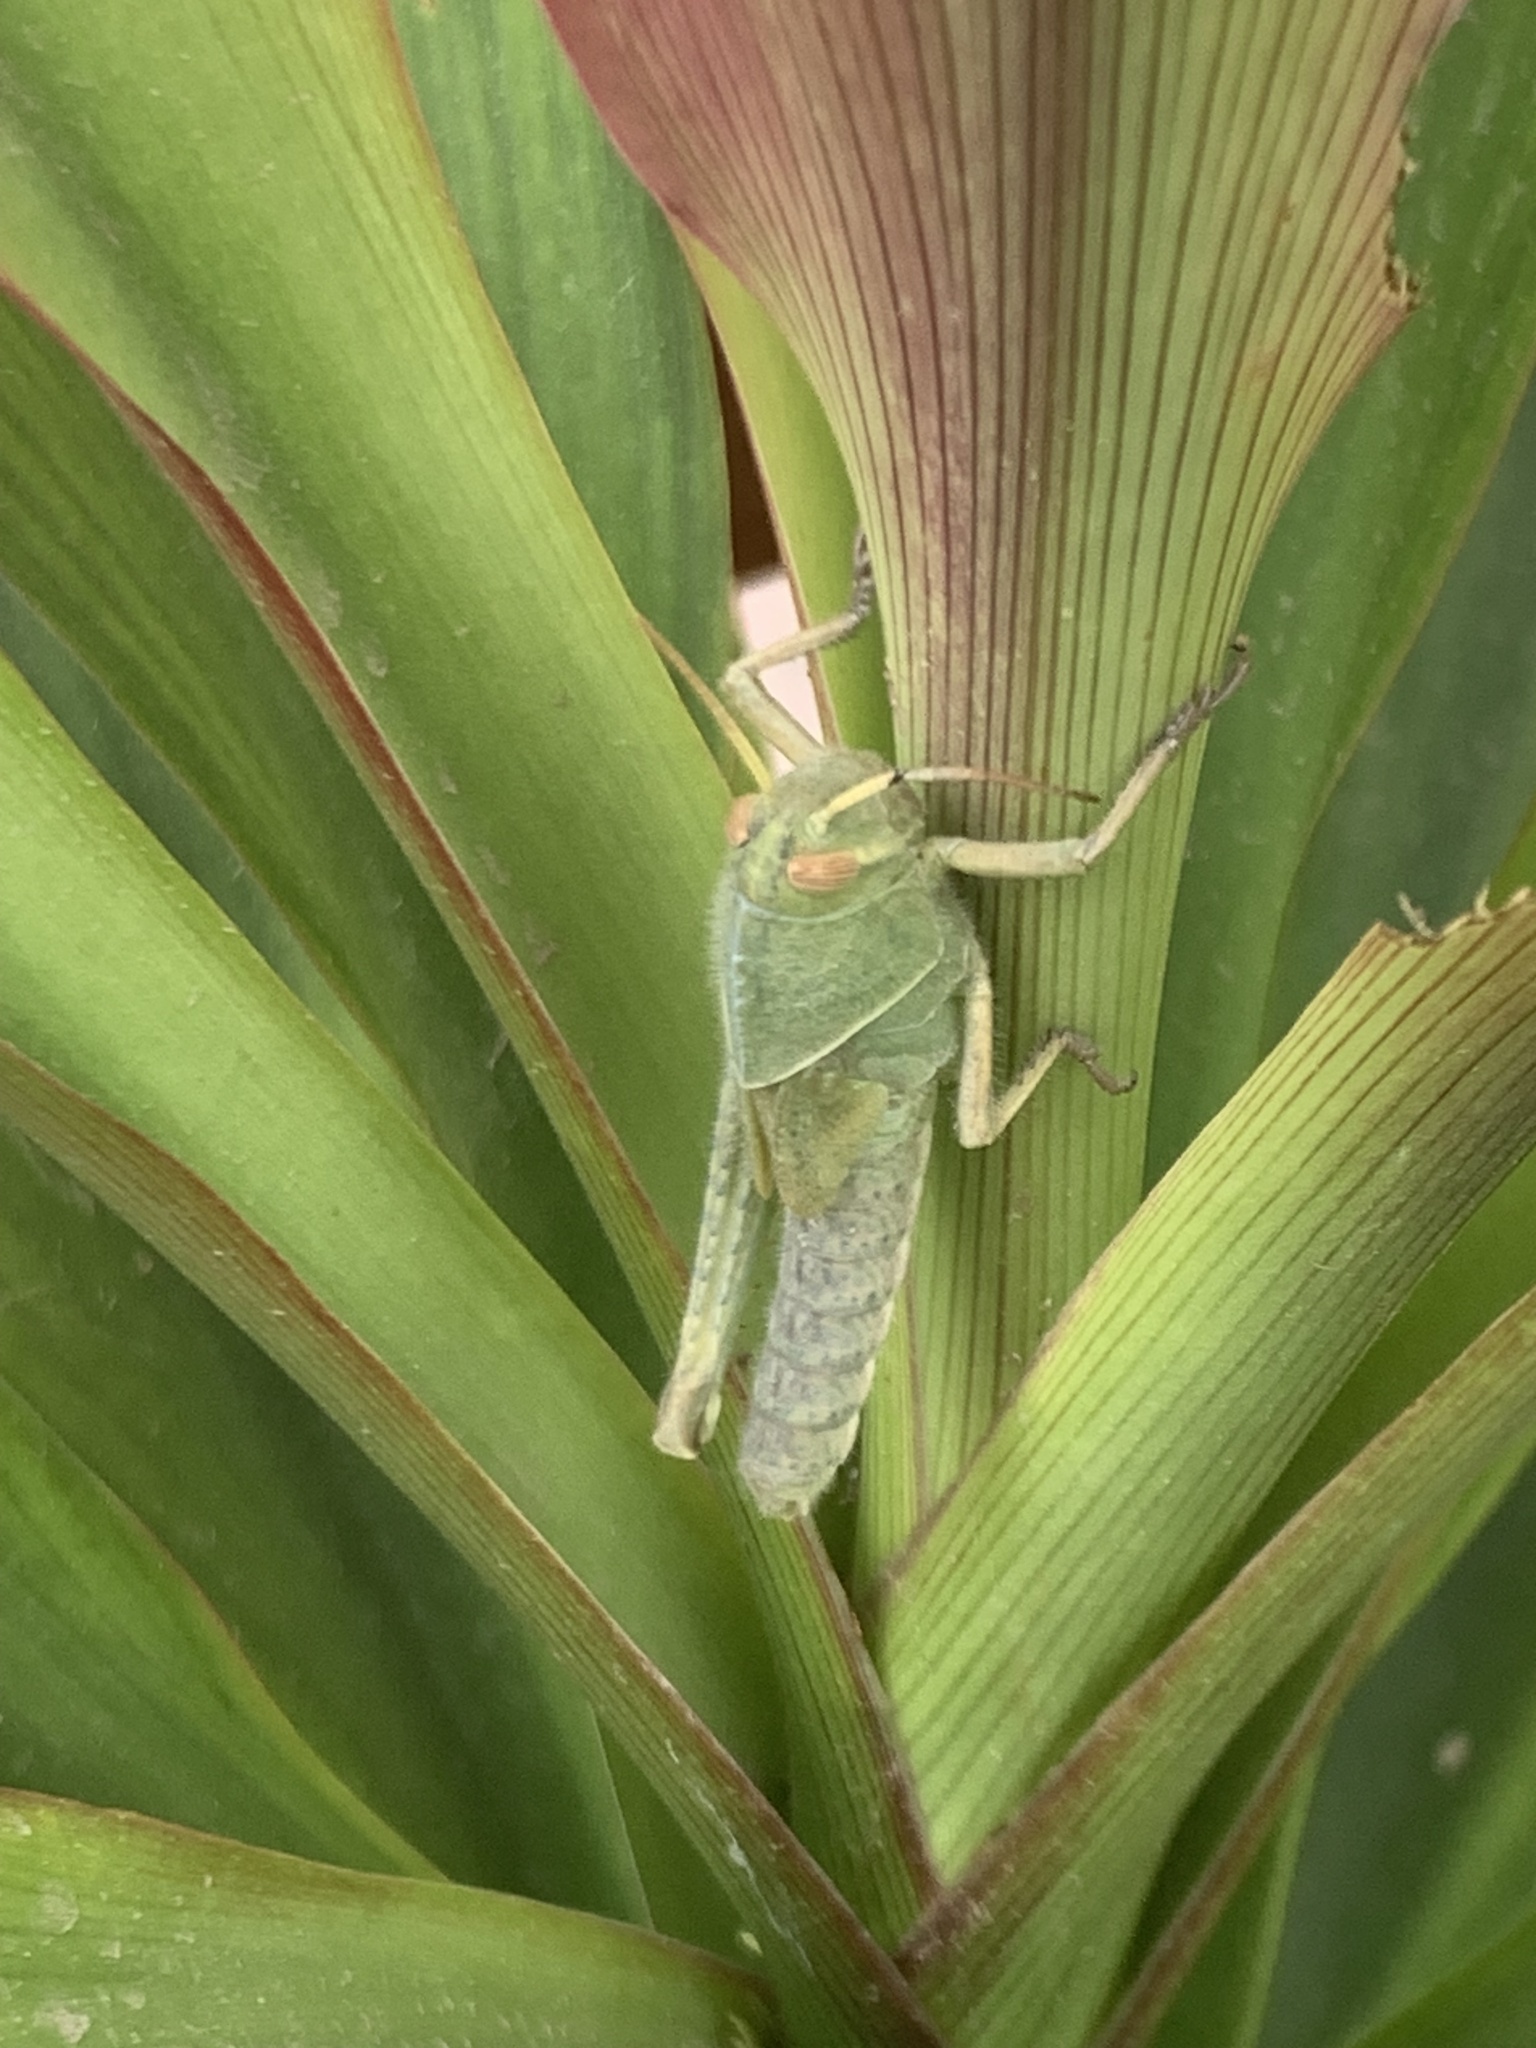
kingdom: Animalia
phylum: Arthropoda
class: Insecta
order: Orthoptera
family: Acrididae
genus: Schistocerca
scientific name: Schistocerca flavofasciata
